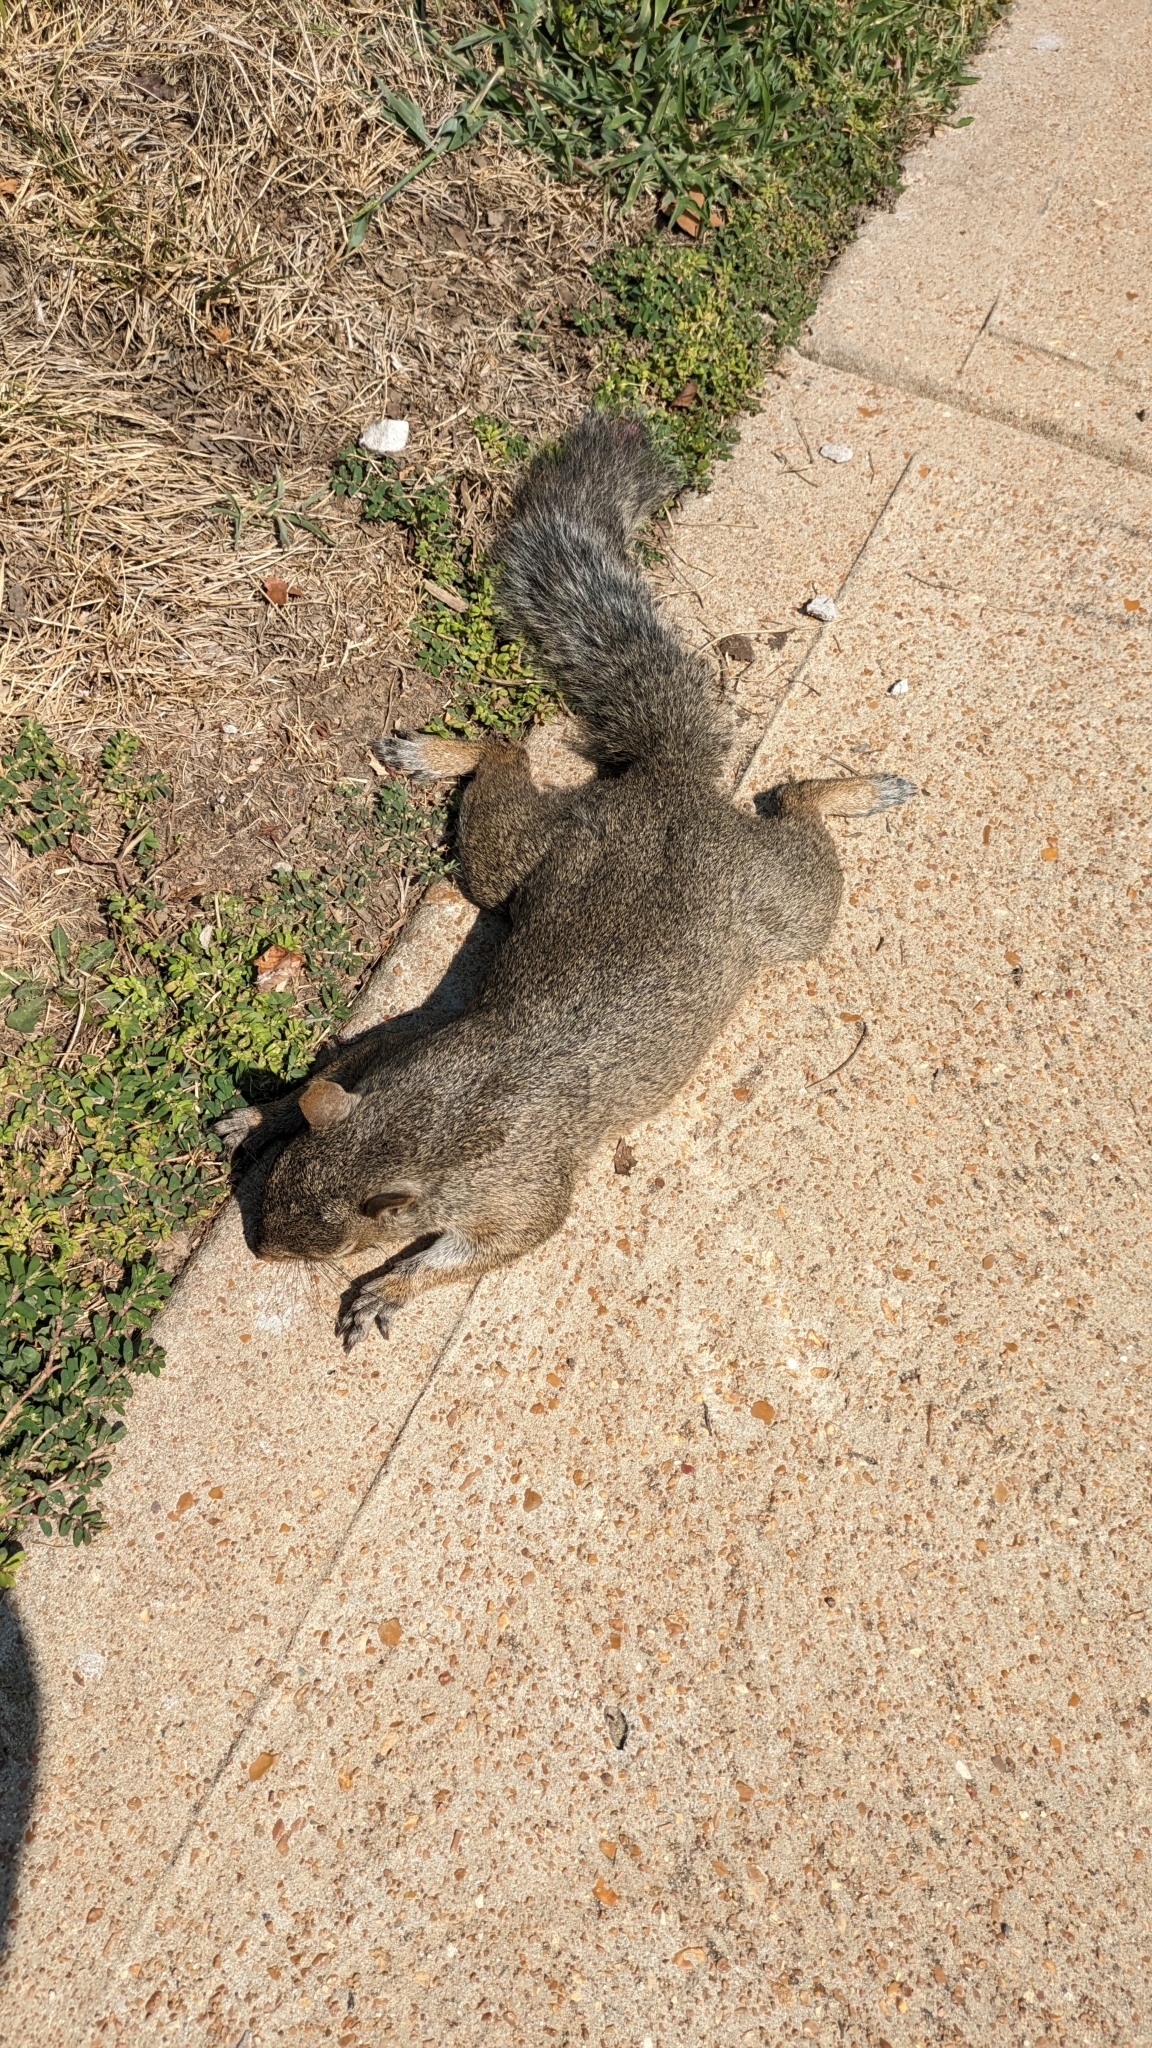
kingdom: Animalia
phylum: Chordata
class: Mammalia
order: Rodentia
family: Sciuridae
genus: Sciurus
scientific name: Sciurus carolinensis
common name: Eastern gray squirrel
